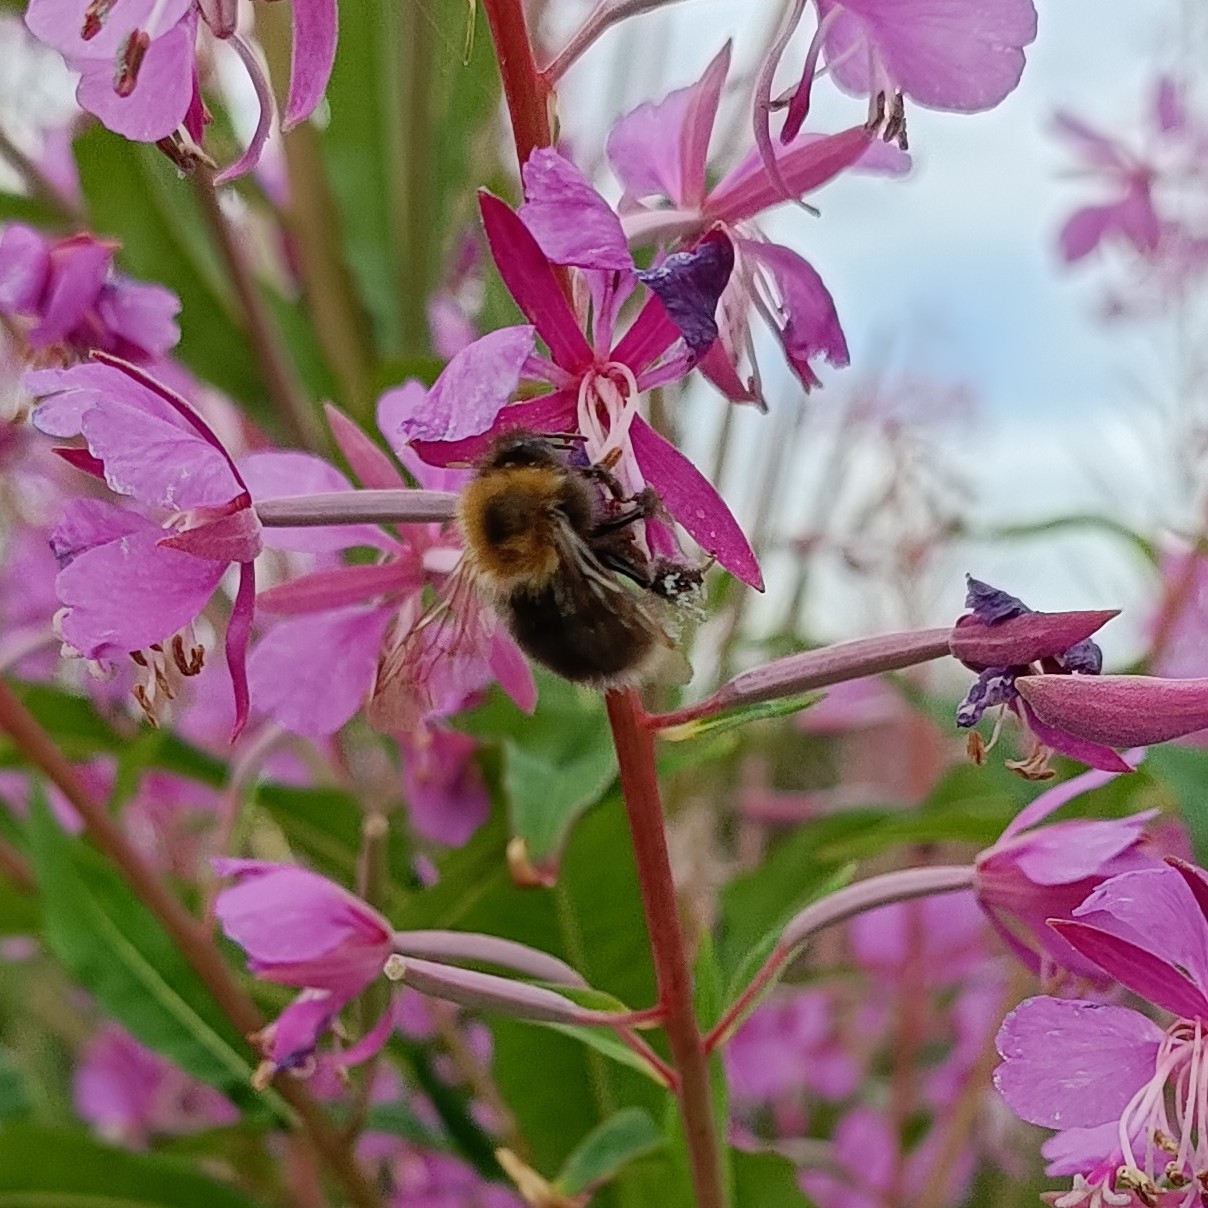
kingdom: Animalia
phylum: Arthropoda
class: Insecta
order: Hymenoptera
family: Apidae
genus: Bombus
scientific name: Bombus hypnorum
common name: New garden bumblebee
